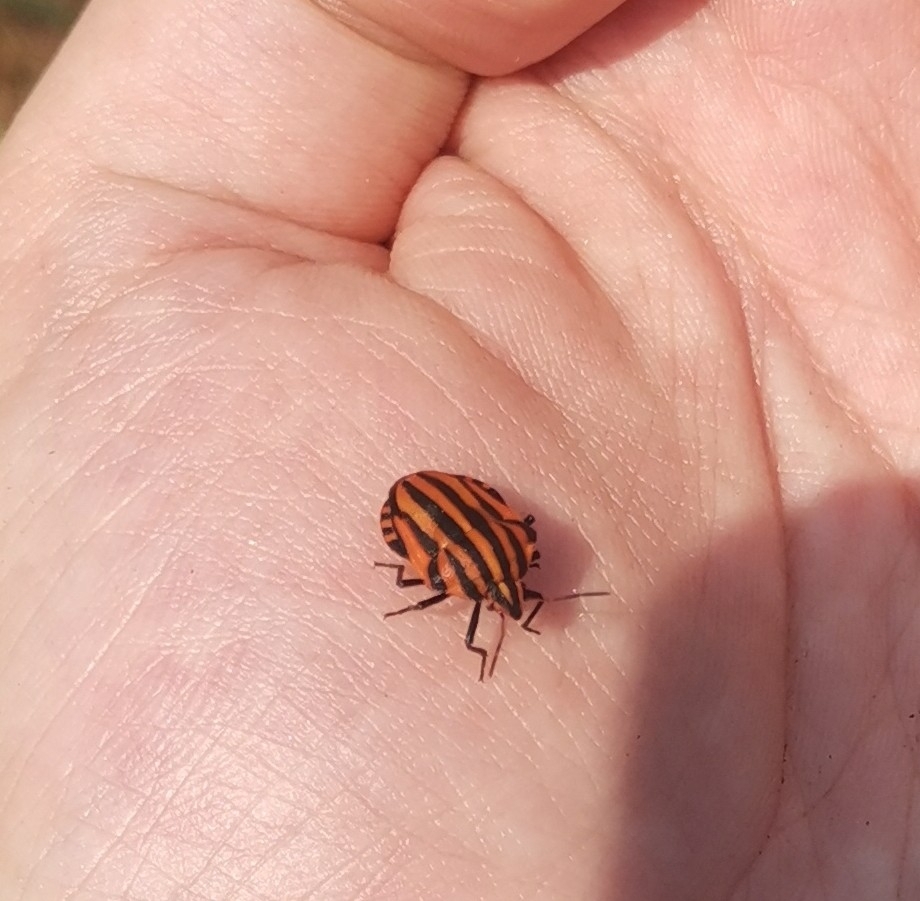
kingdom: Animalia
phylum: Arthropoda
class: Insecta
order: Hemiptera
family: Pentatomidae
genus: Graphosoma
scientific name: Graphosoma italicum
